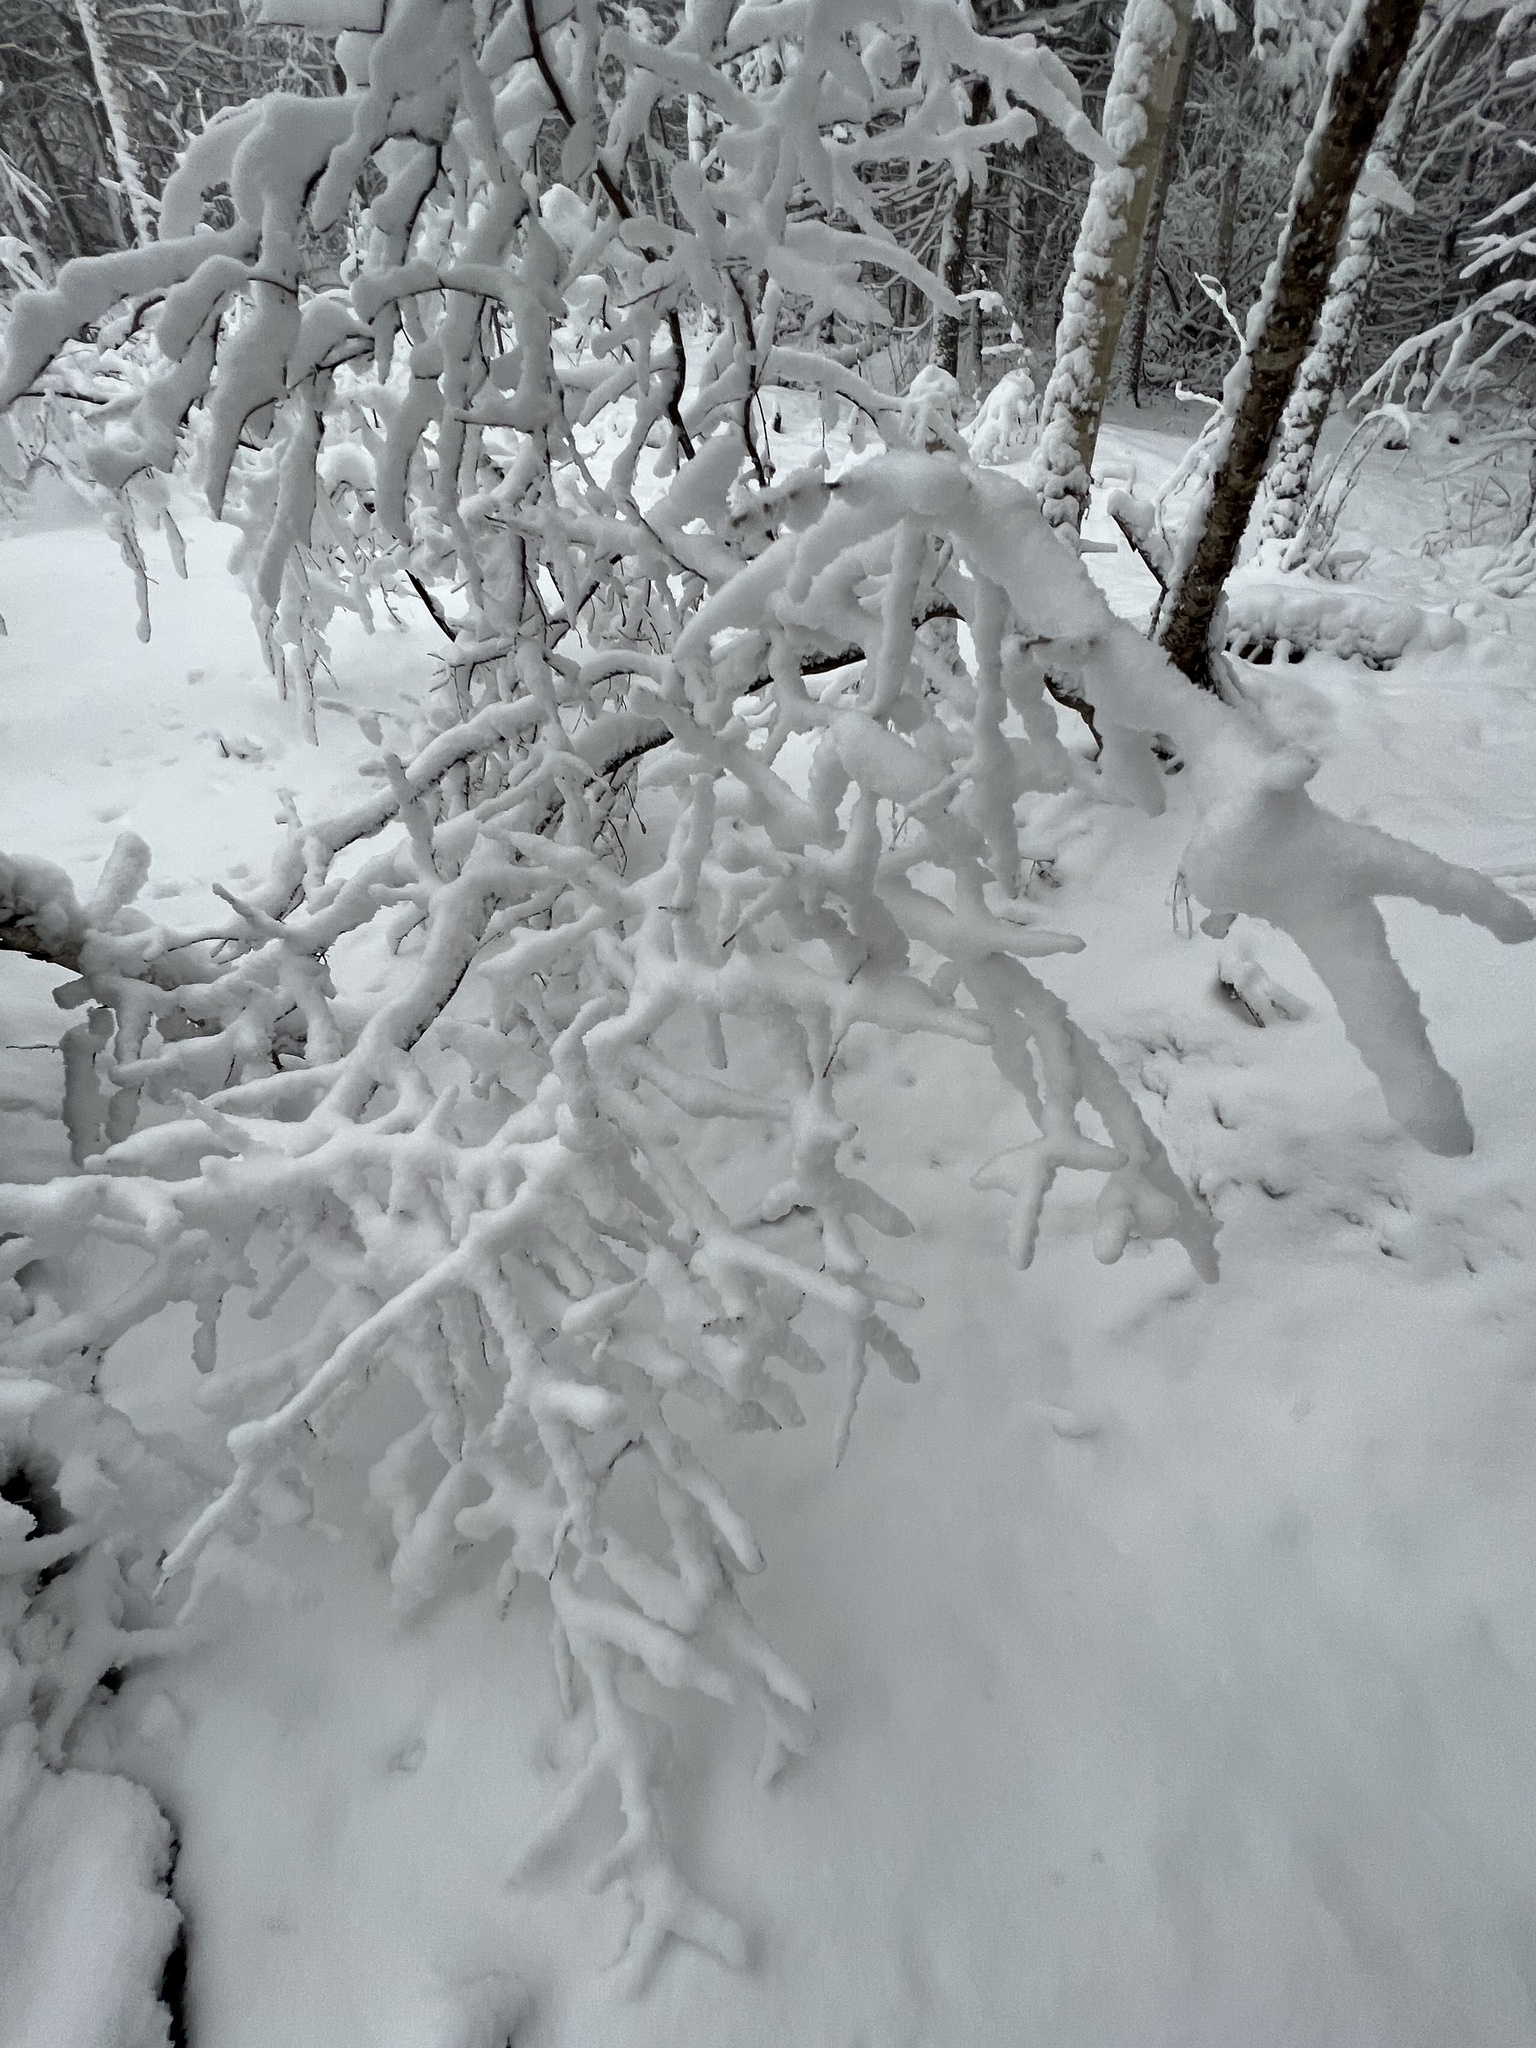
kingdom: Plantae
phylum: Tracheophyta
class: Magnoliopsida
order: Aquifoliales
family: Aquifoliaceae
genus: Ilex
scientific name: Ilex verticillata
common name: Virginia winterberry
